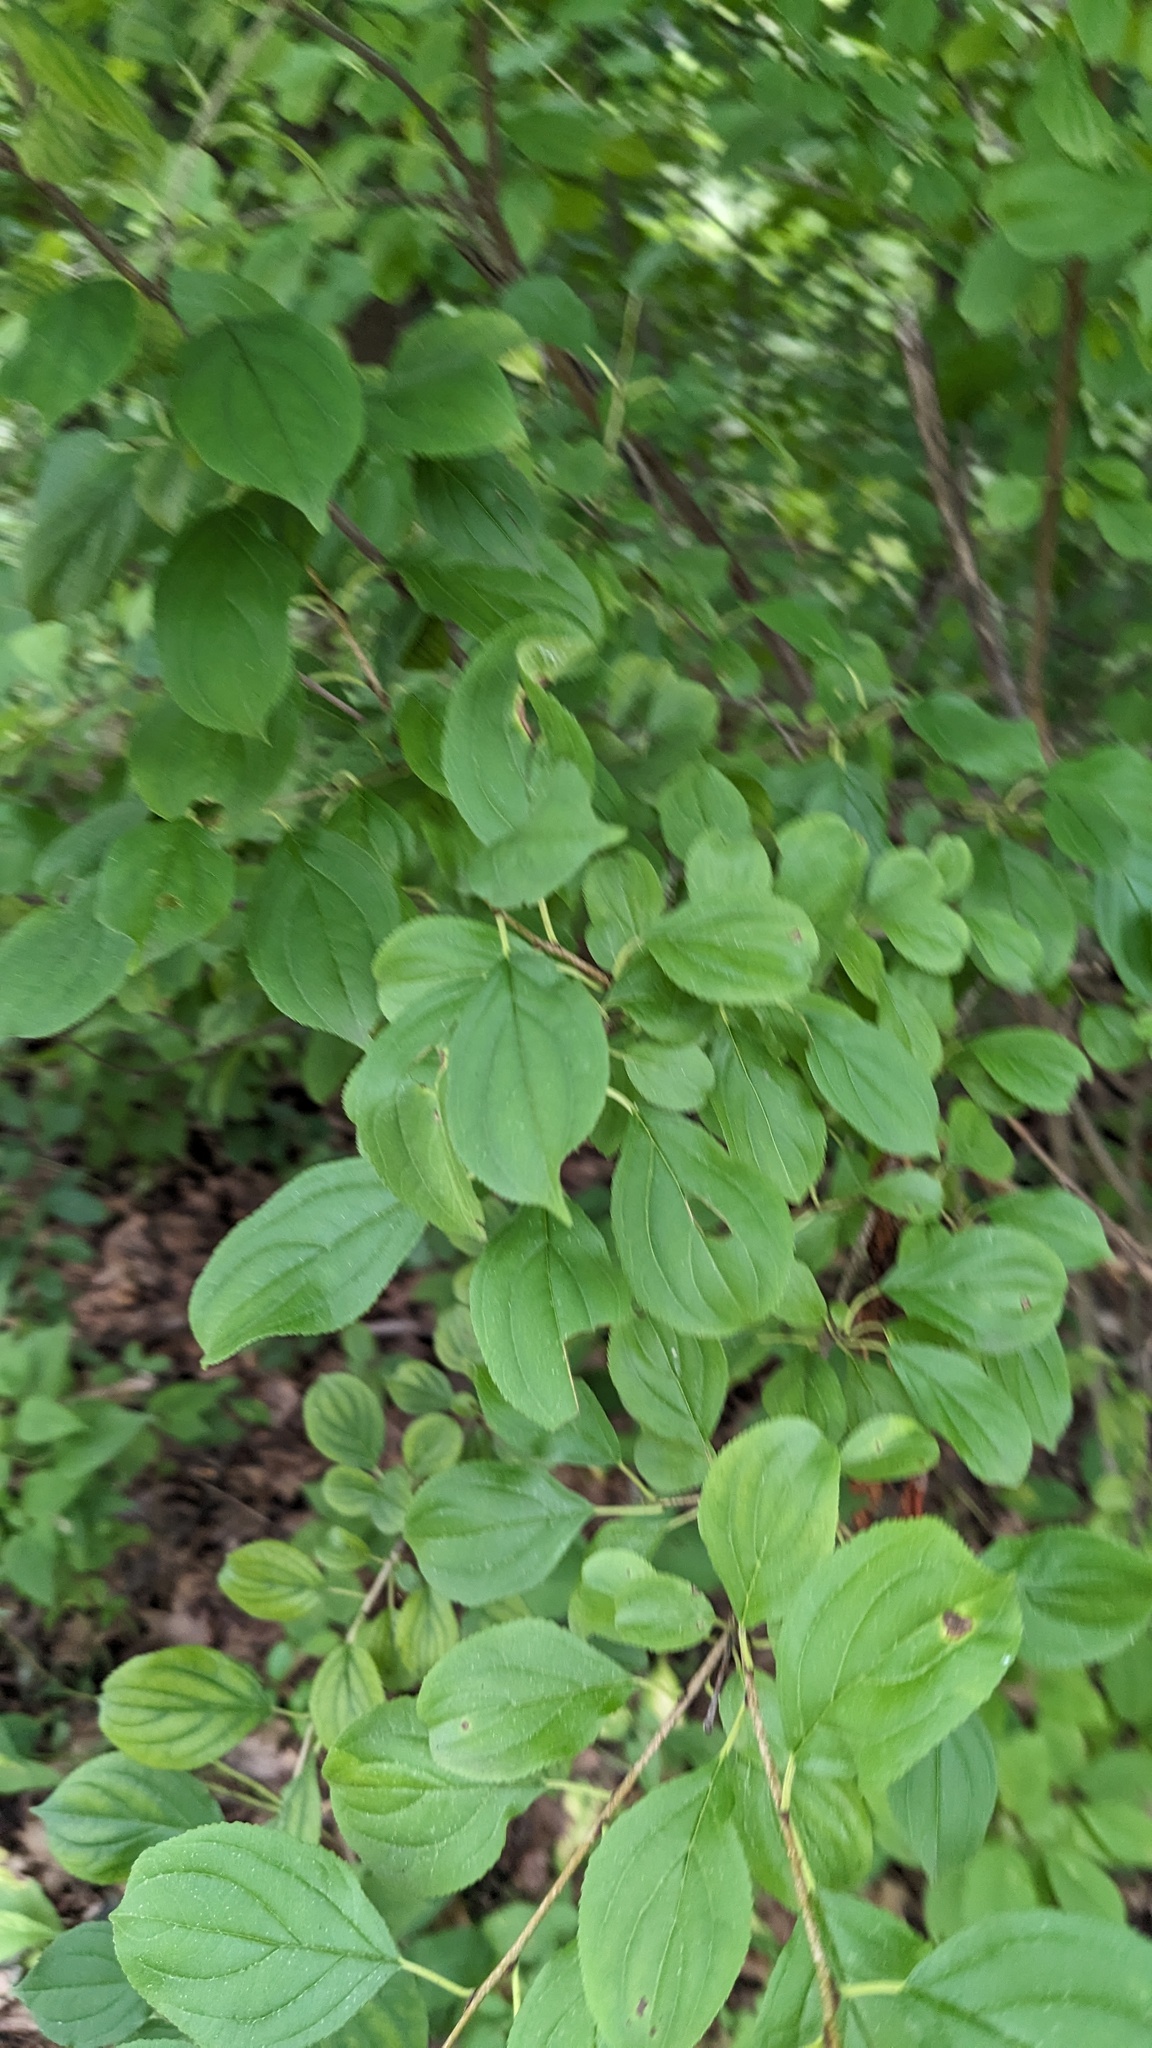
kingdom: Plantae
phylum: Tracheophyta
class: Magnoliopsida
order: Rosales
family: Rhamnaceae
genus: Rhamnus
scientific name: Rhamnus cathartica
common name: Common buckthorn
